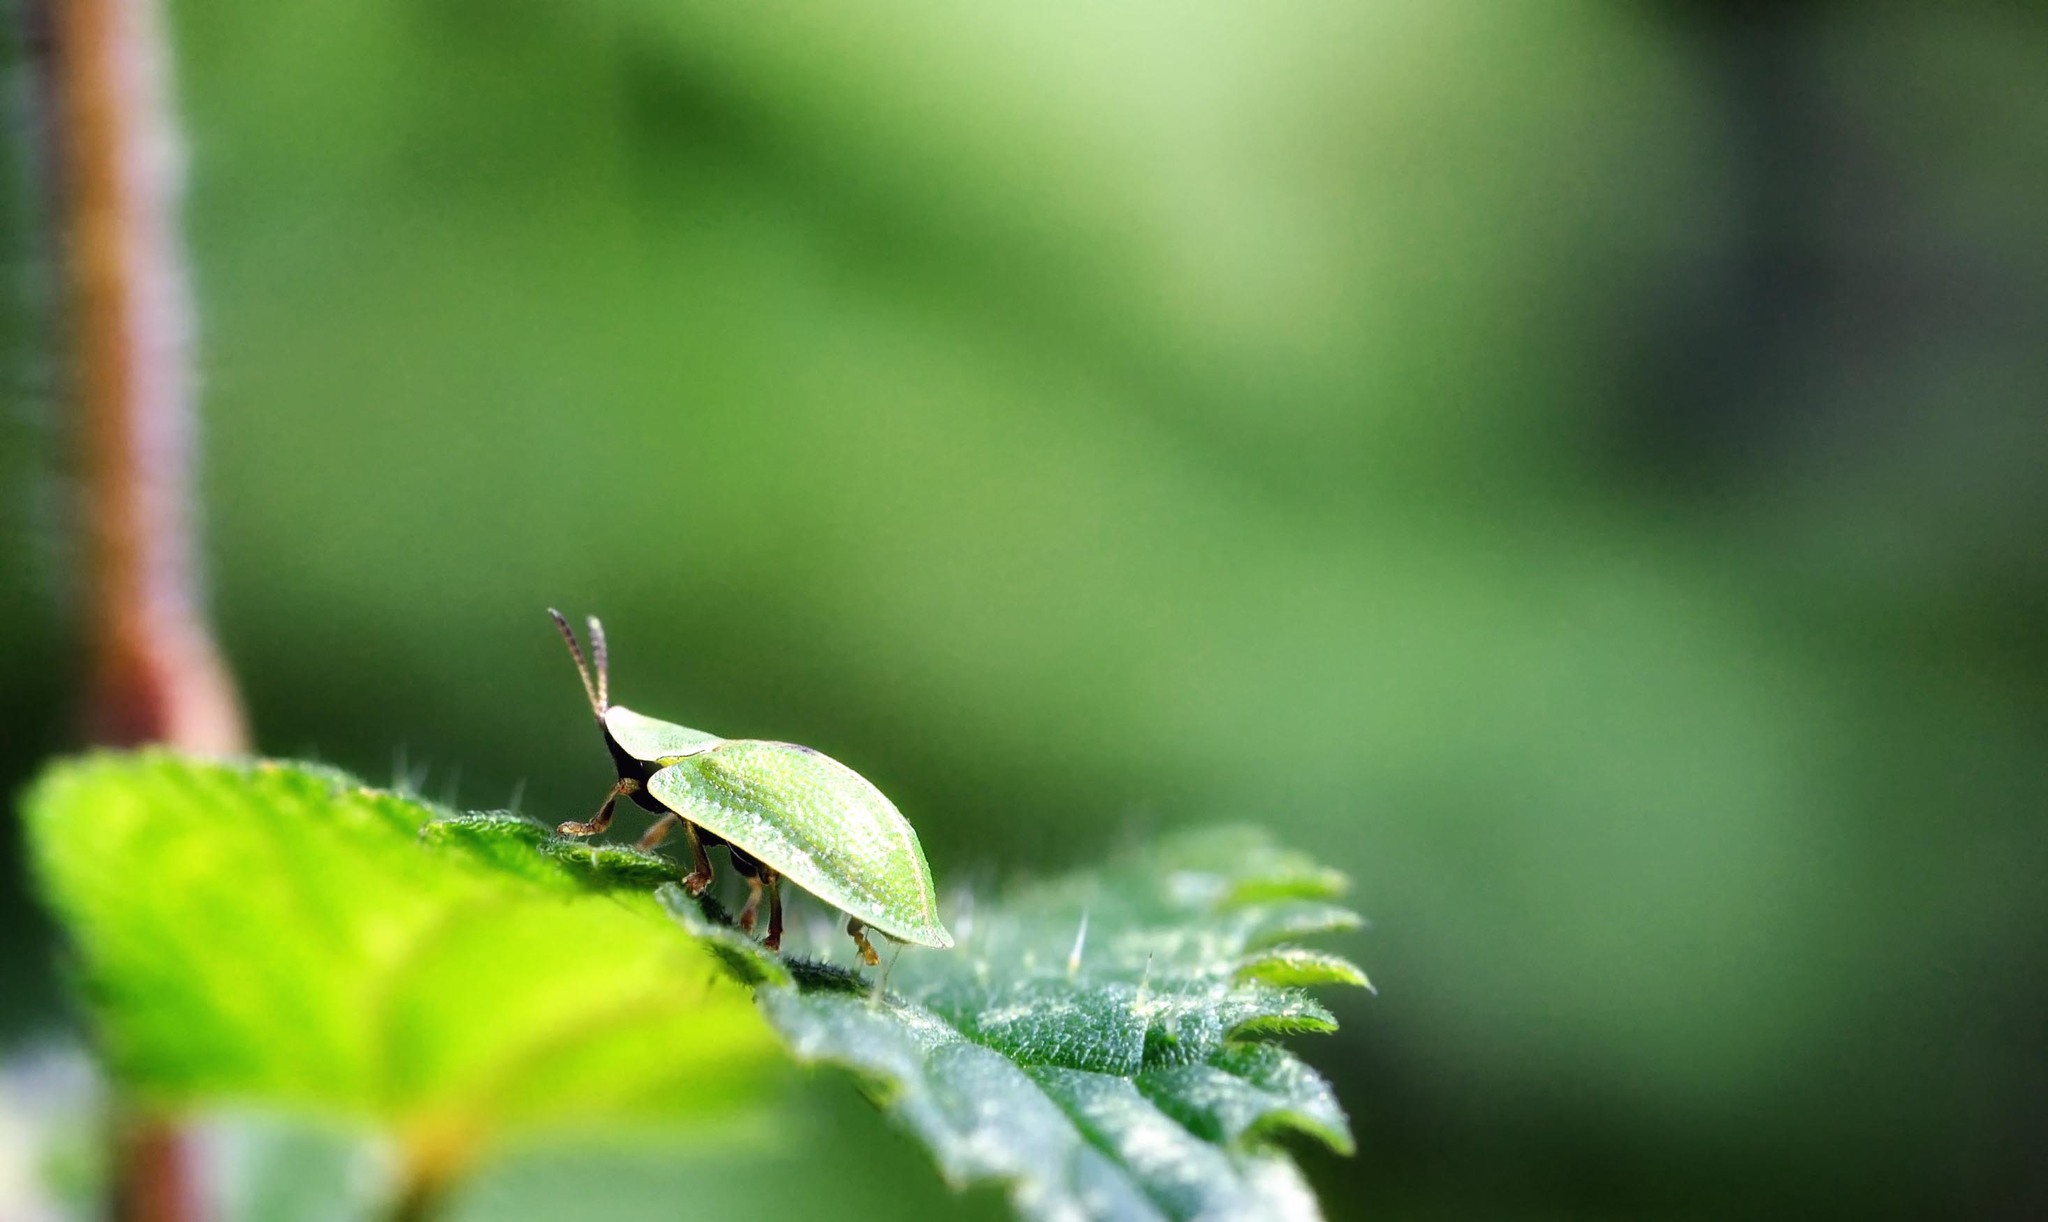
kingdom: Animalia
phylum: Arthropoda
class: Insecta
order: Coleoptera
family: Chrysomelidae
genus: Cassida
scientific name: Cassida viridis
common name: Green tortoise beetle
